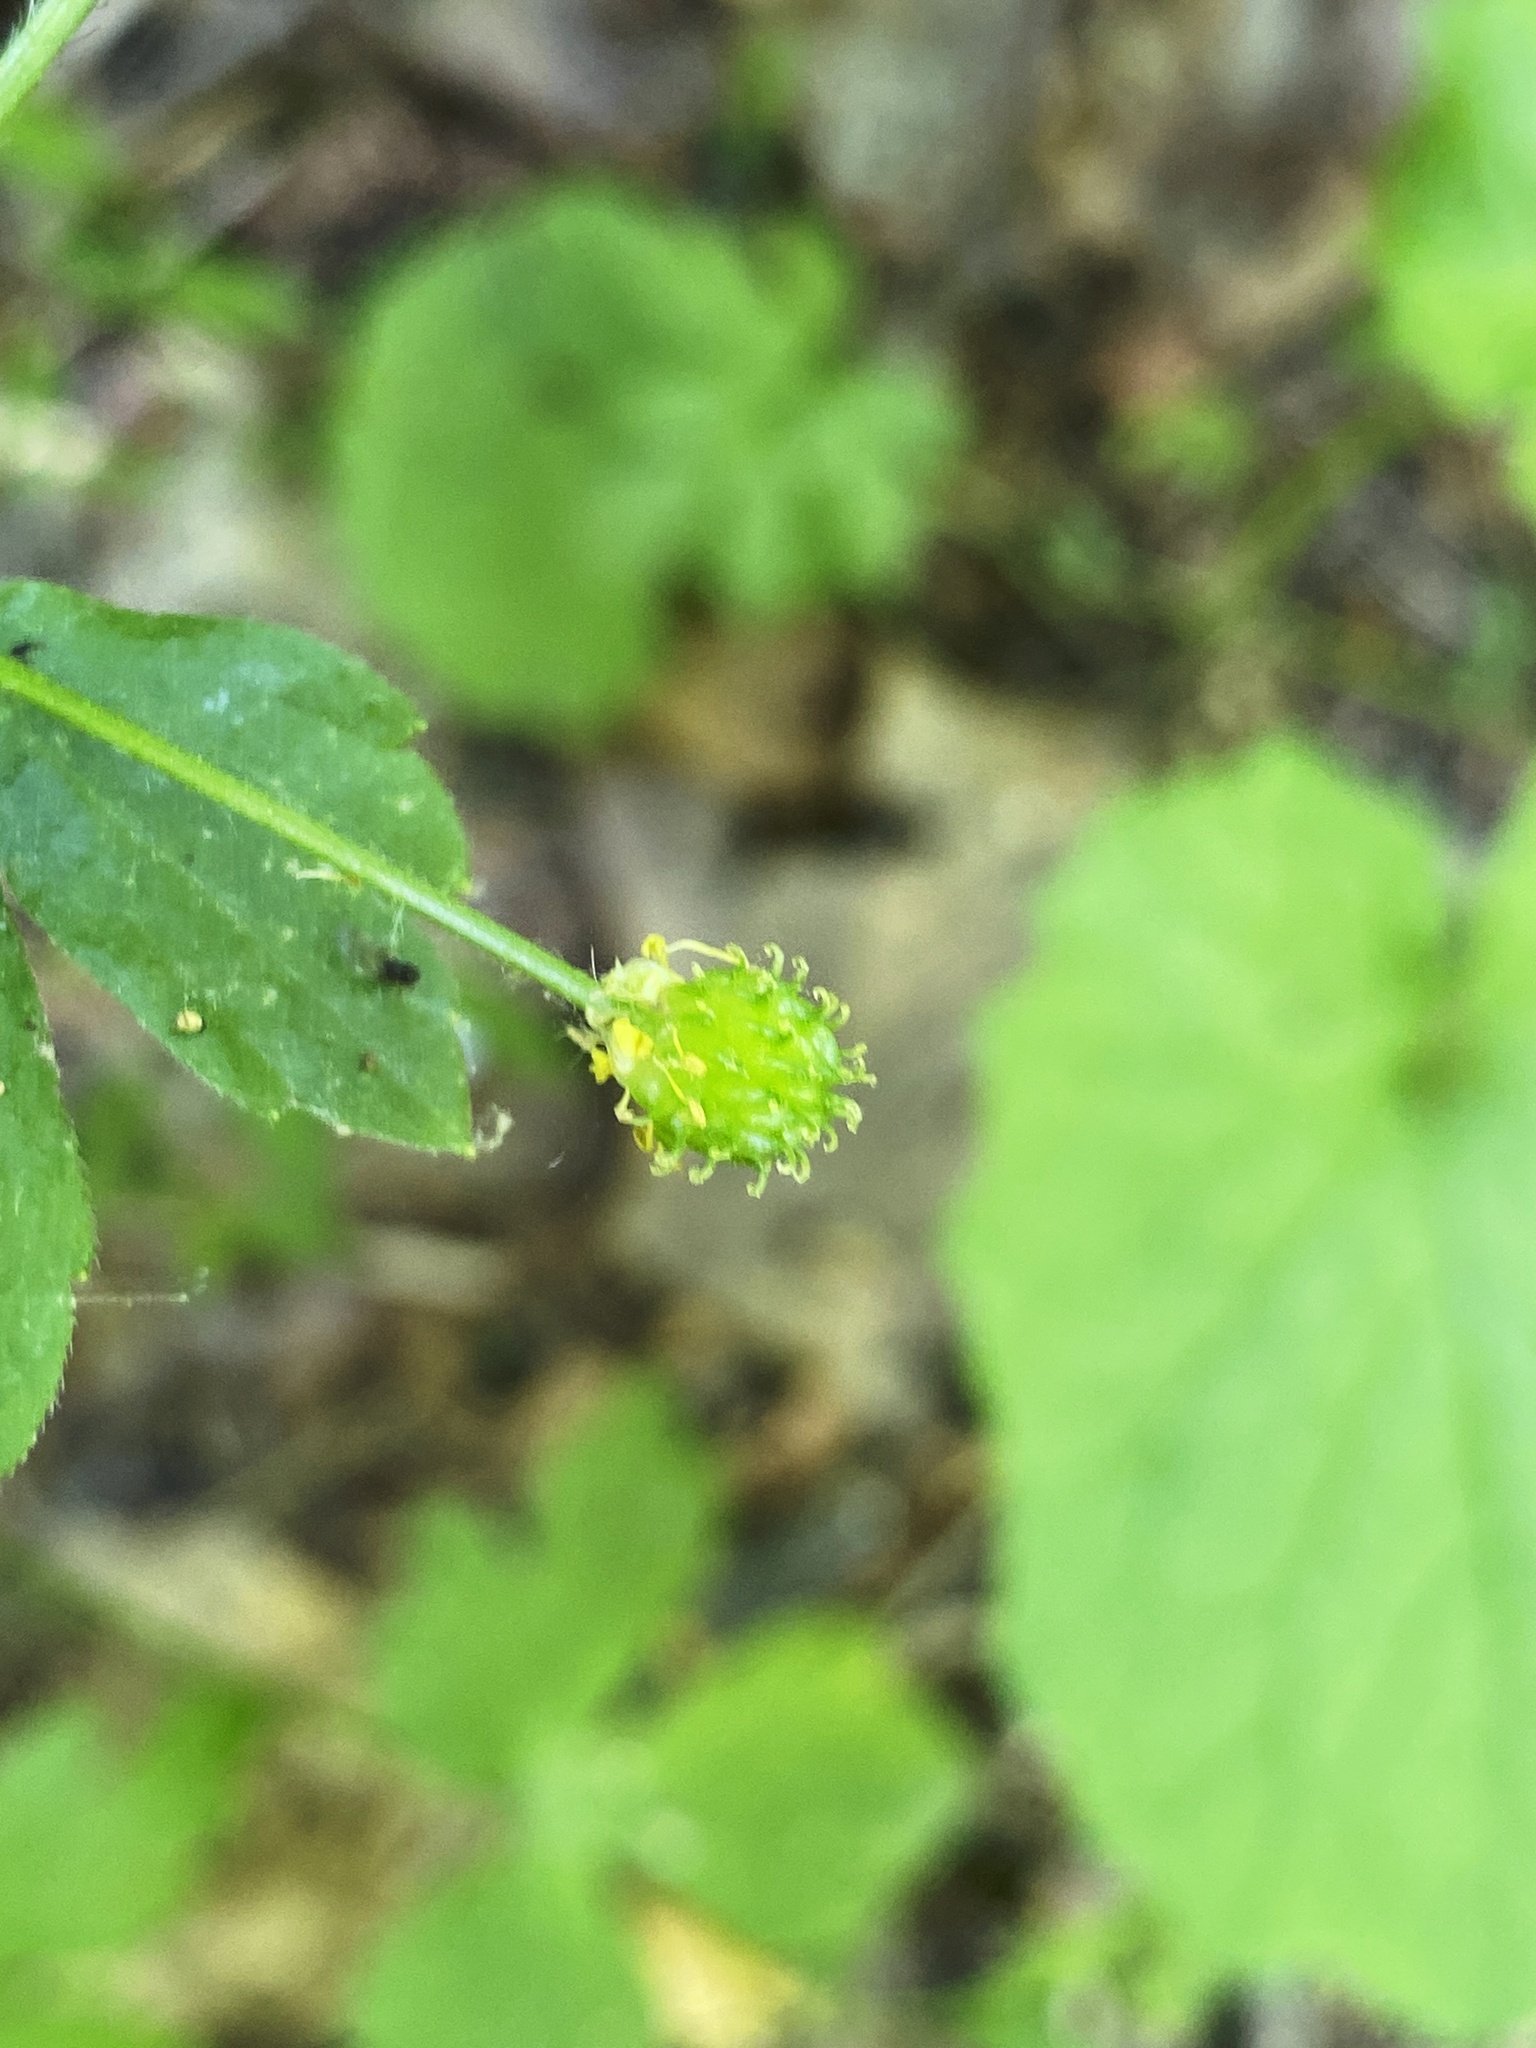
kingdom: Plantae
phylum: Tracheophyta
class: Magnoliopsida
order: Ranunculales
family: Ranunculaceae
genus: Ranunculus
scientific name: Ranunculus recurvatus
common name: Blisterwort
